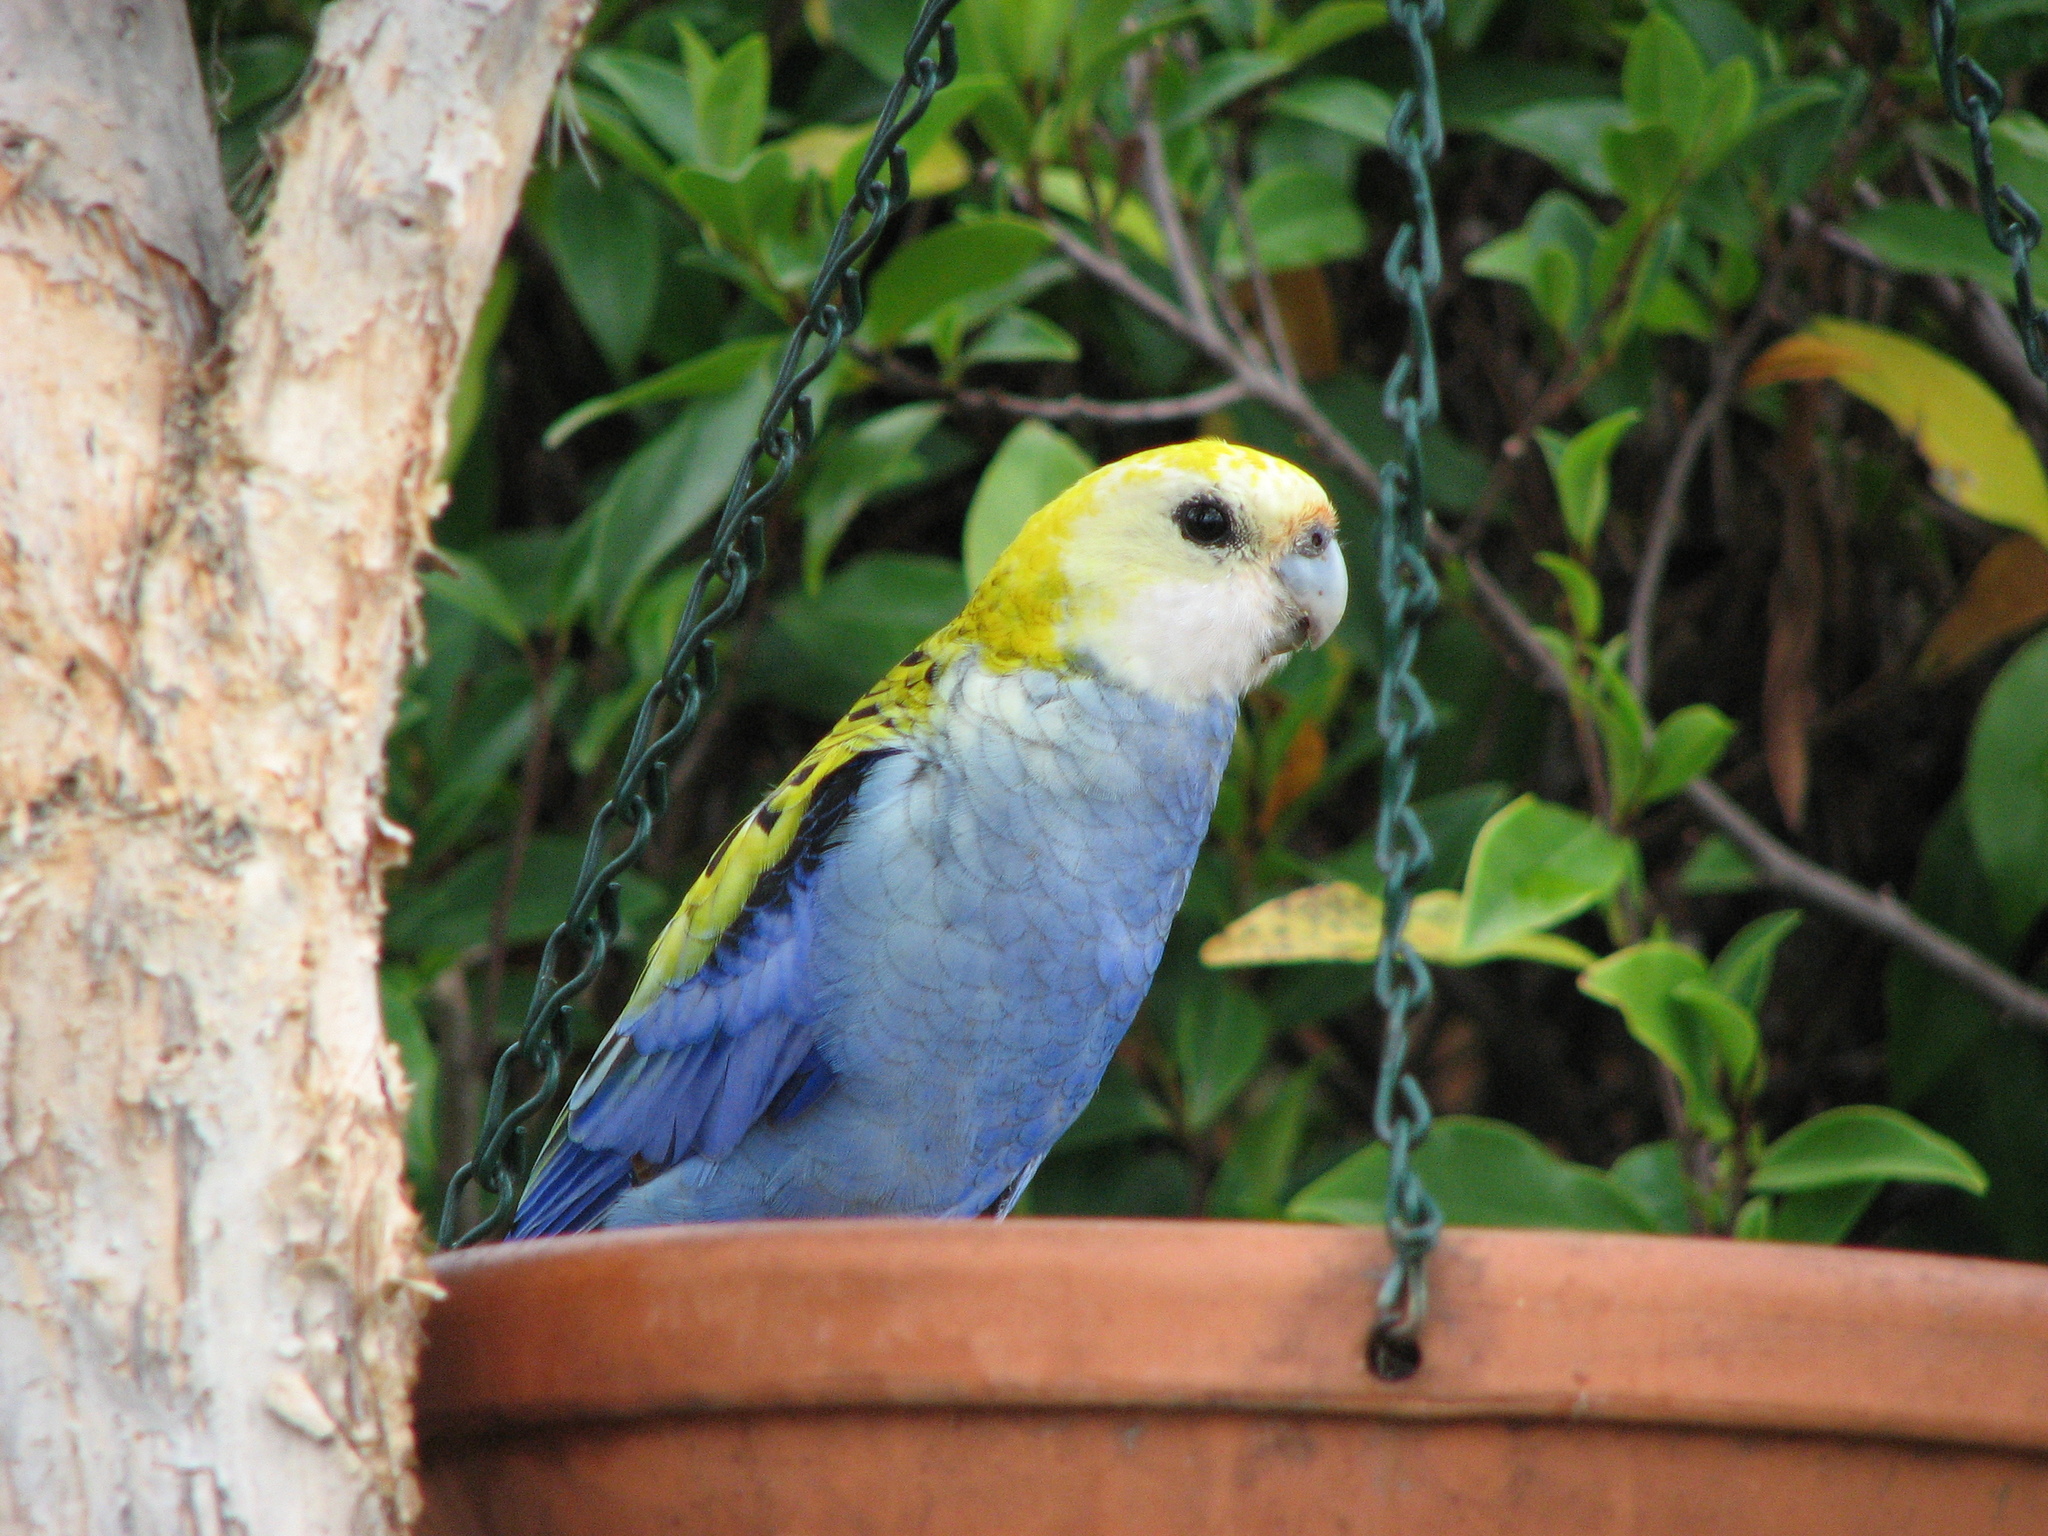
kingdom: Animalia
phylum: Chordata
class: Aves
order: Psittaciformes
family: Psittacidae
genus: Platycercus
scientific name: Platycercus adscitus
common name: Pale-headed rosella
